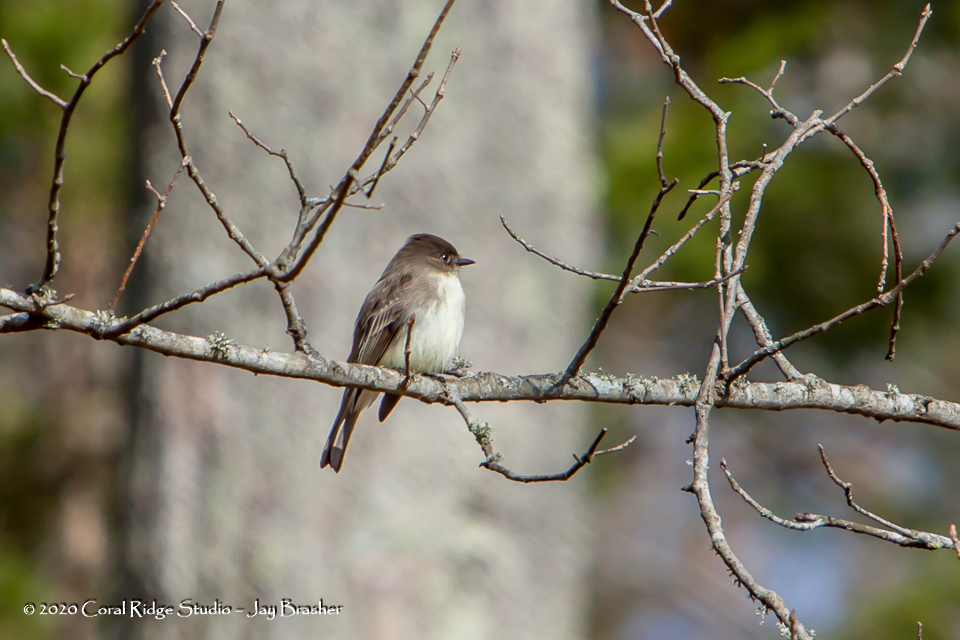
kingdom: Animalia
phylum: Chordata
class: Aves
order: Passeriformes
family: Tyrannidae
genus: Sayornis
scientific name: Sayornis phoebe
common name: Eastern phoebe
